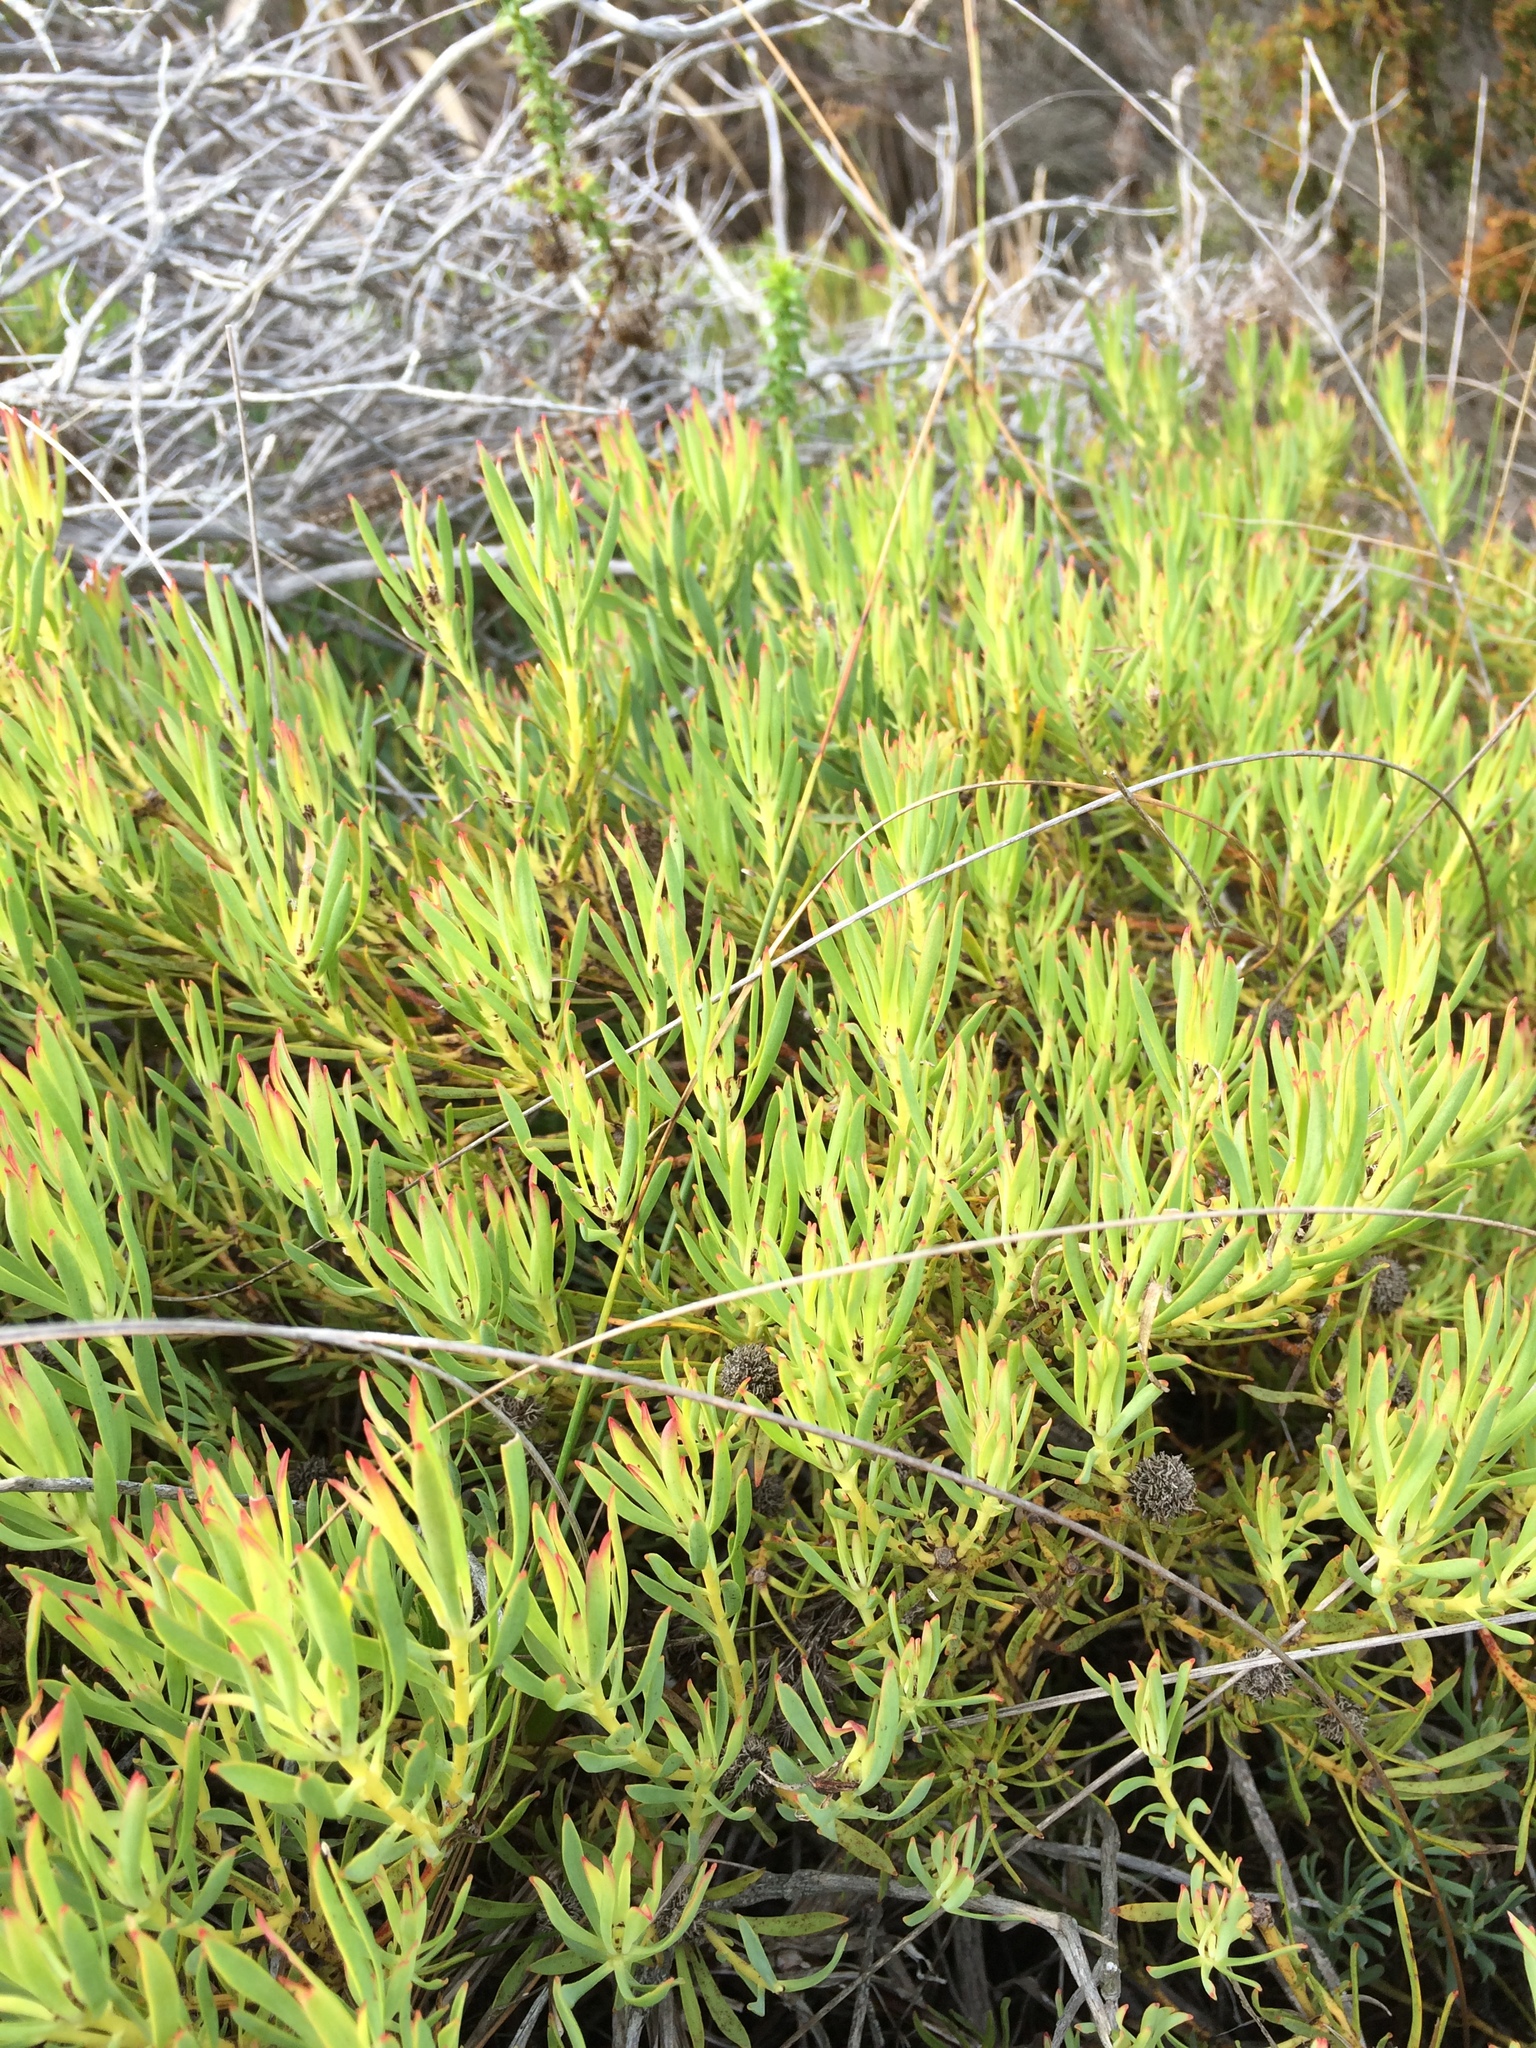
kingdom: Plantae
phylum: Tracheophyta
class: Magnoliopsida
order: Proteales
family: Proteaceae
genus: Leucadendron
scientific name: Leucadendron salignum
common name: Common sunshine conebush
